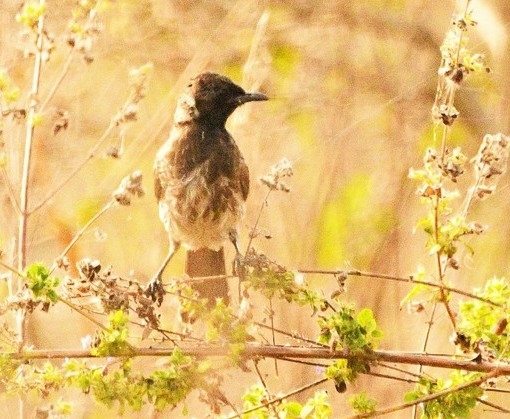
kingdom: Animalia
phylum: Chordata
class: Aves
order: Passeriformes
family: Pycnonotidae
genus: Pycnonotus
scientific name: Pycnonotus cafer
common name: Red-vented bulbul
